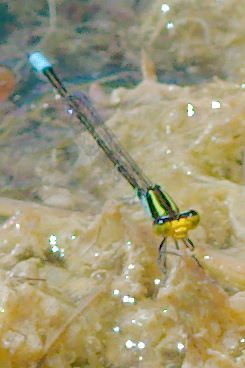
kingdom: Animalia
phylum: Arthropoda
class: Insecta
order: Odonata
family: Coenagrionidae
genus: Neoerythromma
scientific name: Neoerythromma cultellatum
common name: Caribbean yellowface
